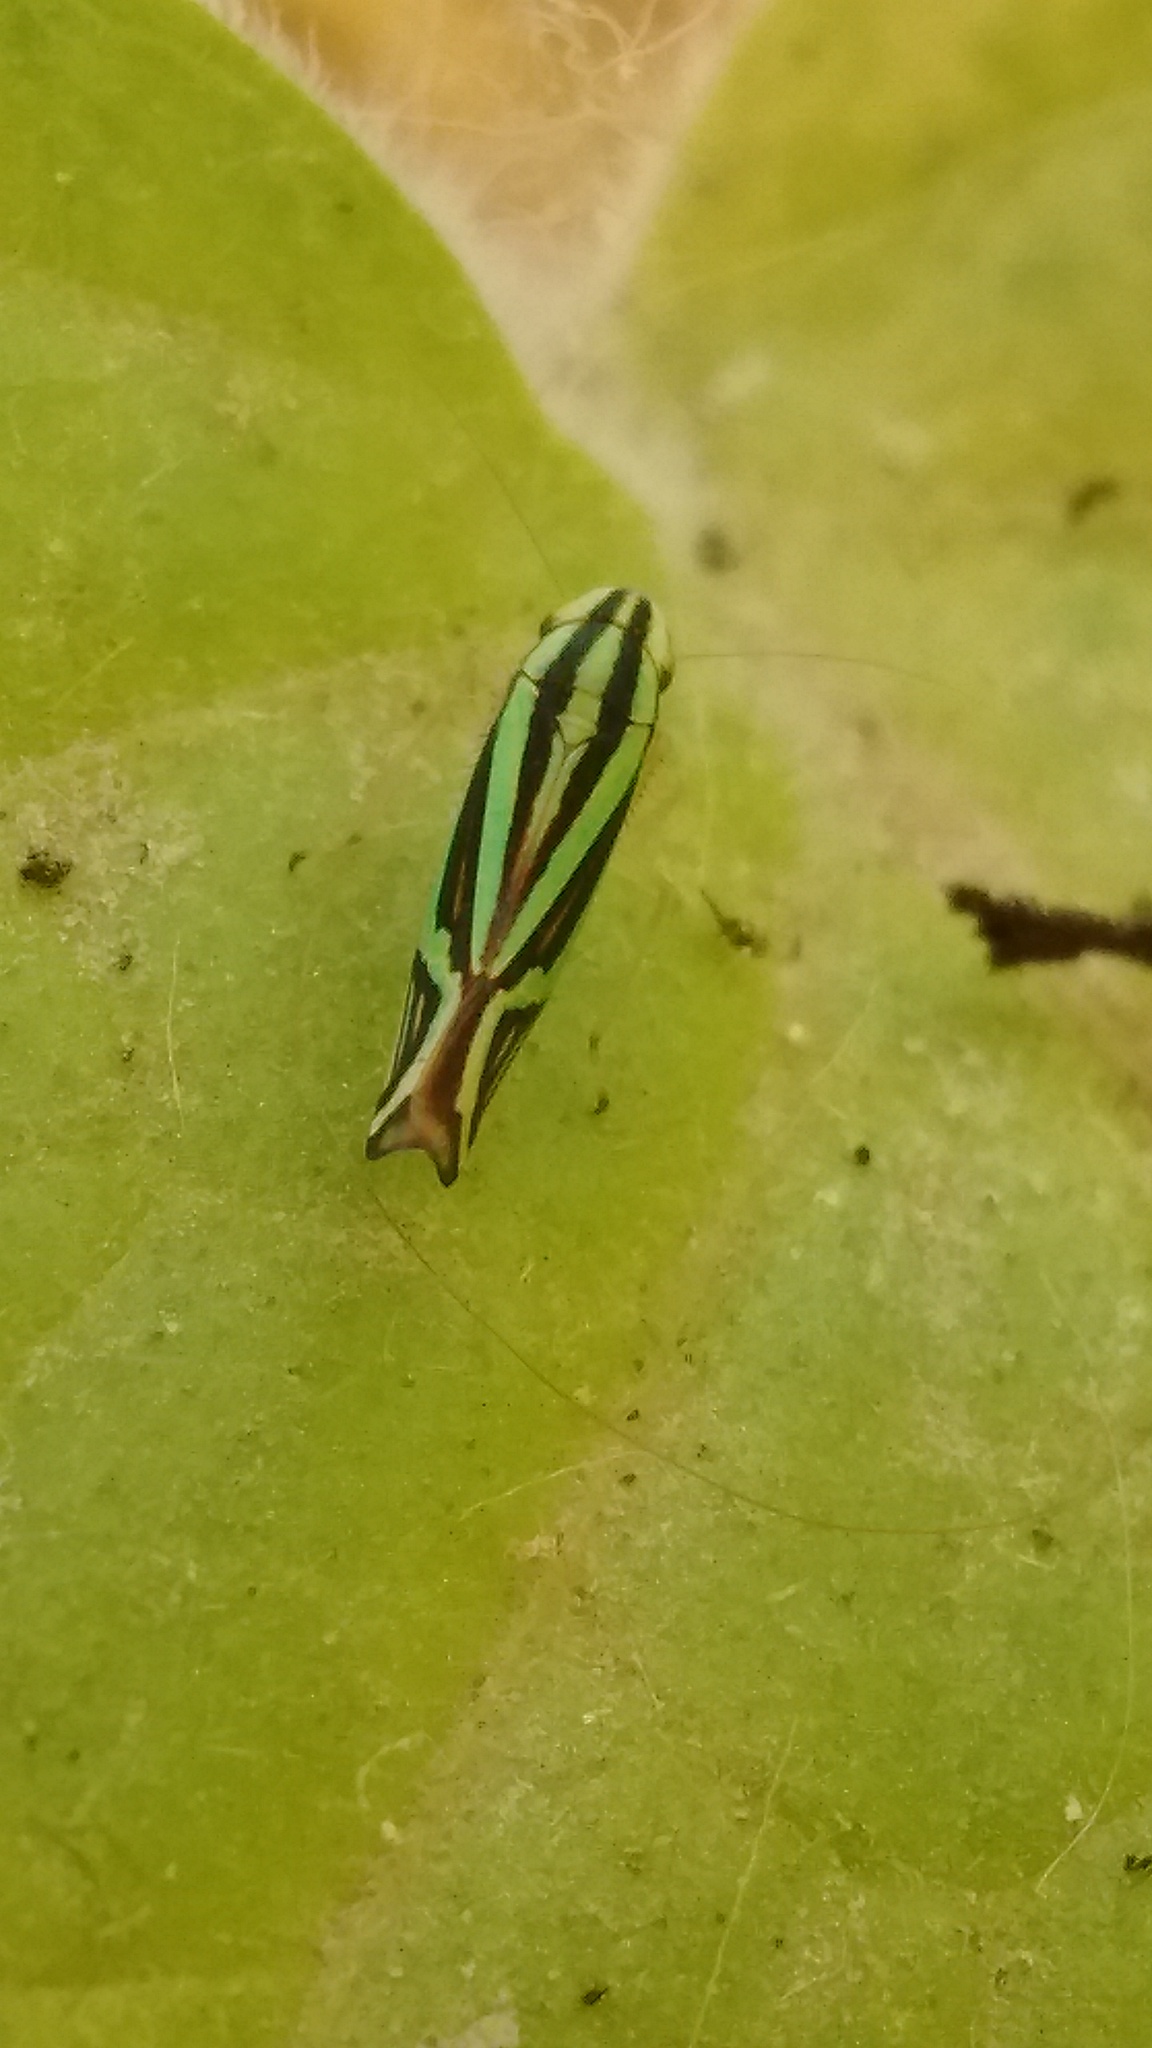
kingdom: Animalia
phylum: Arthropoda
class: Insecta
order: Hemiptera
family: Cicadellidae
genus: Sibovia
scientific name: Sibovia sagata
